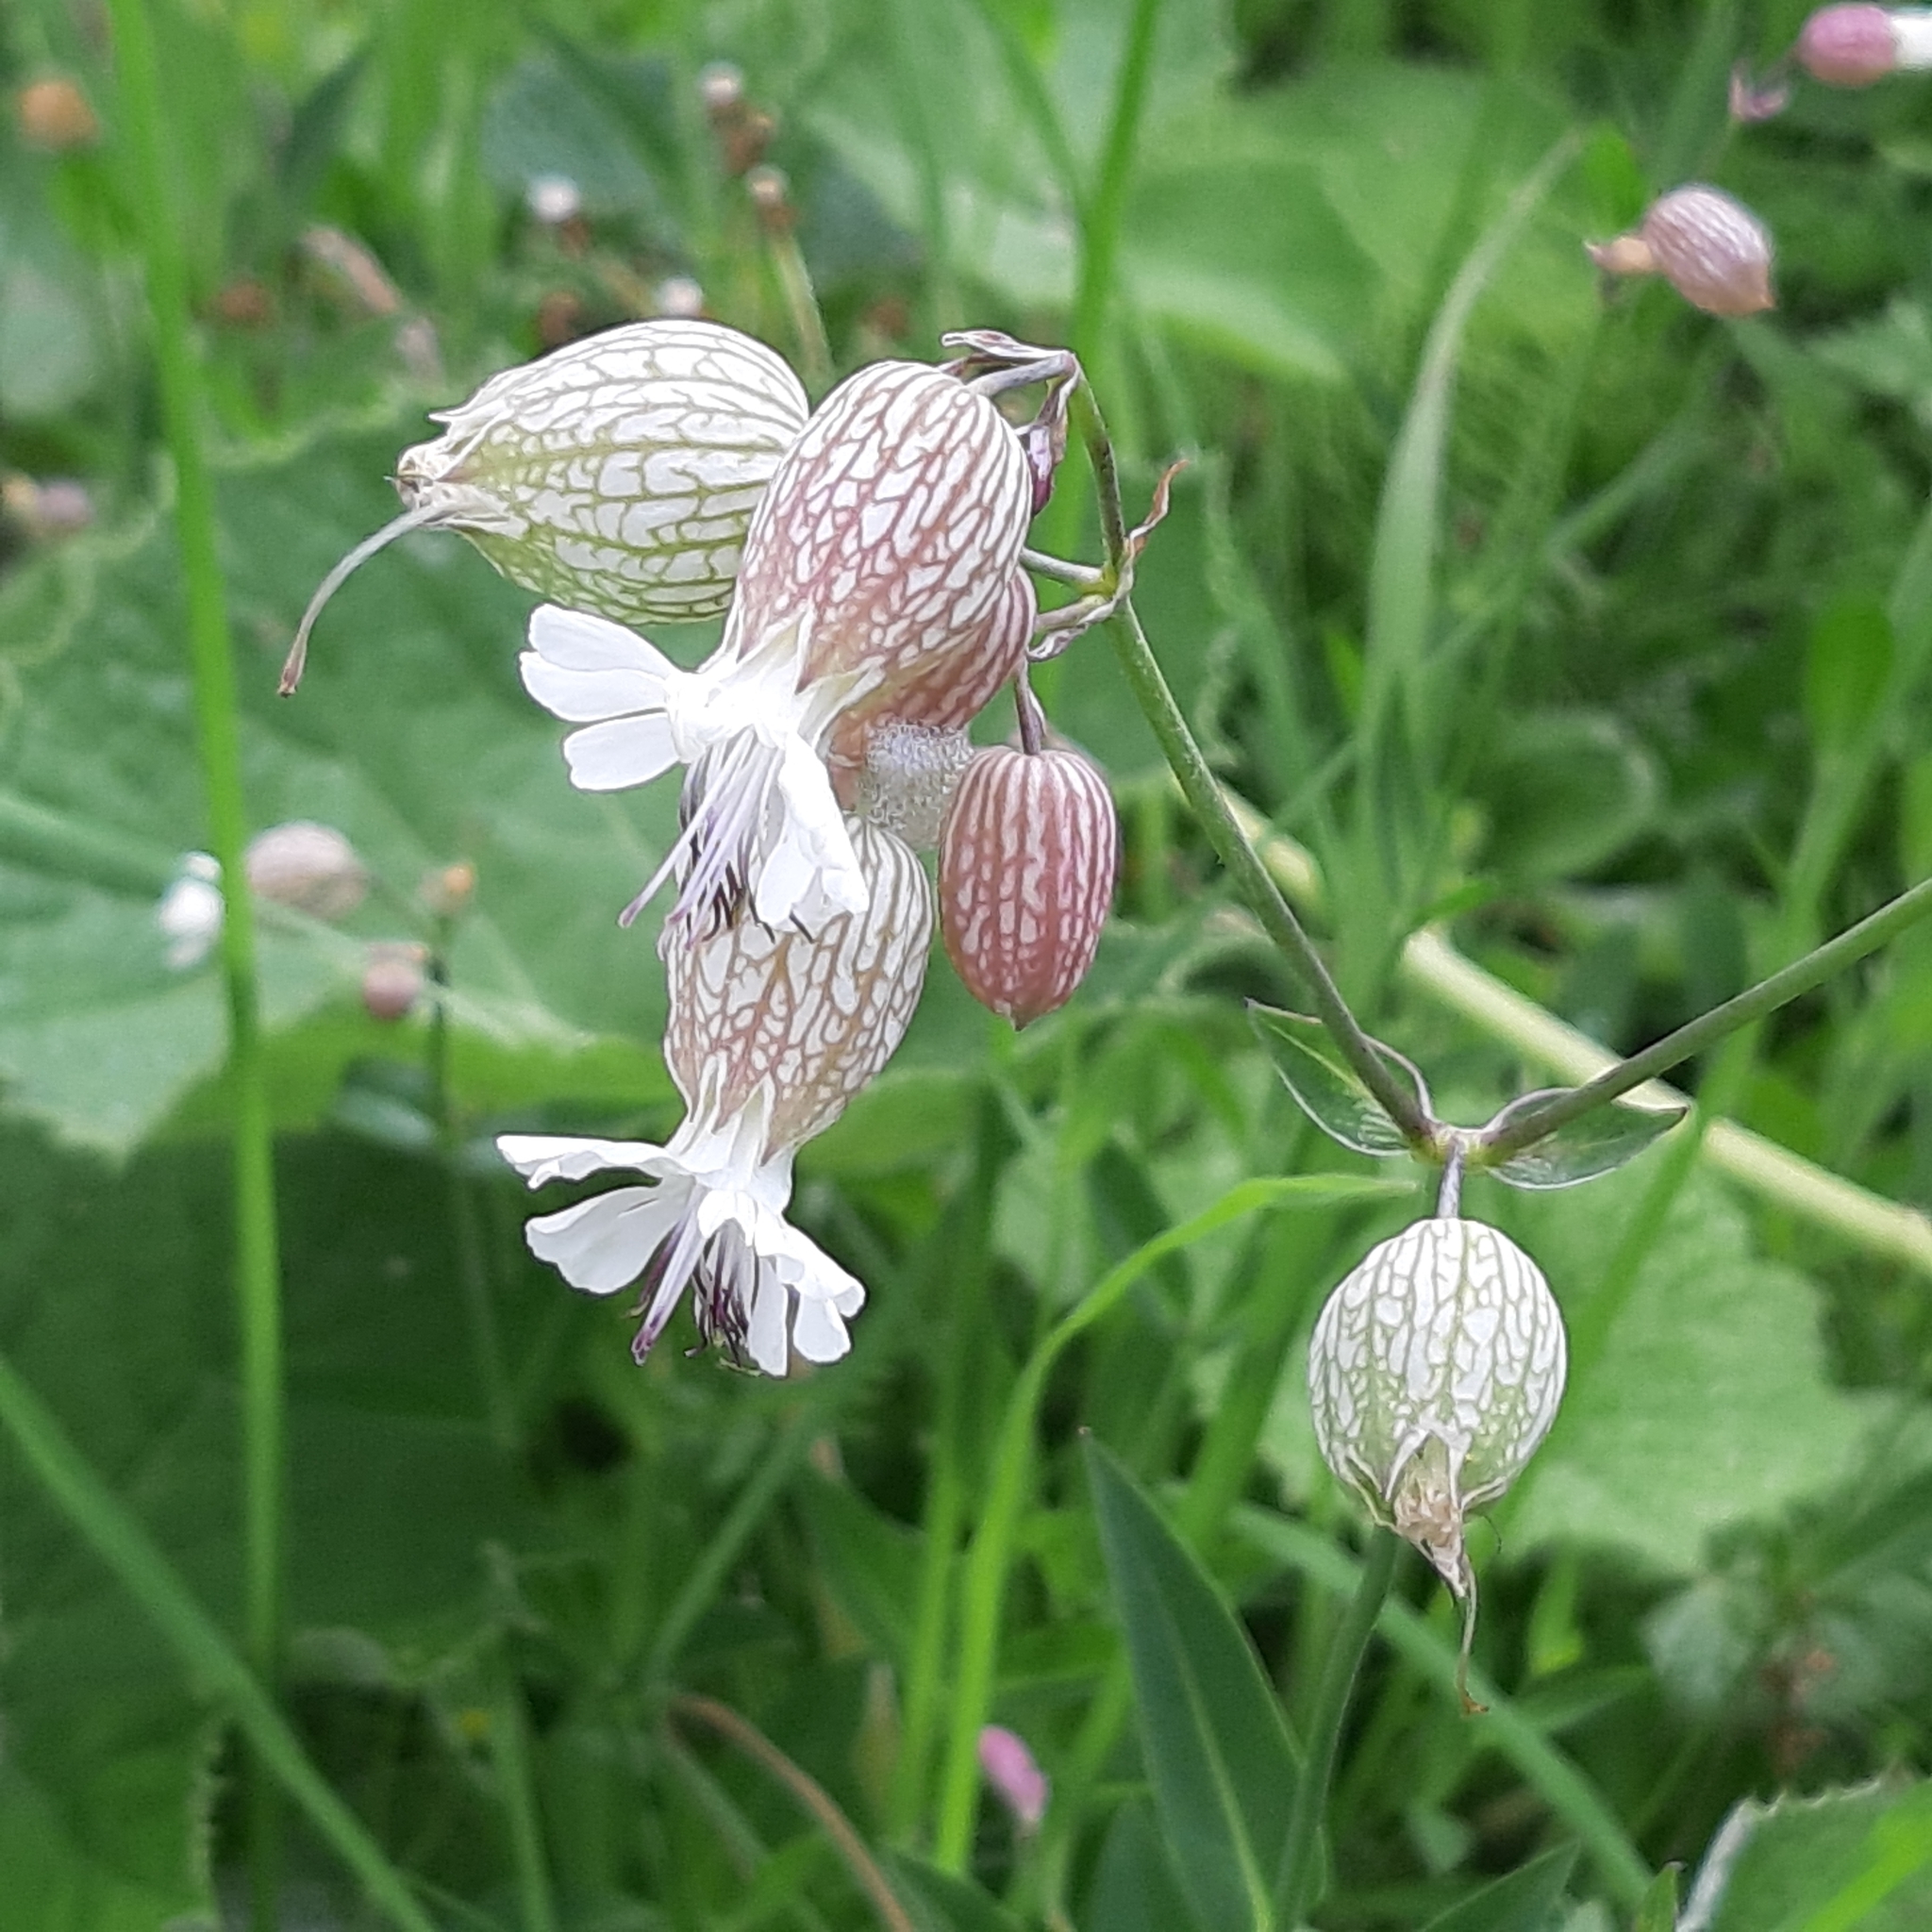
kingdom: Plantae
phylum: Tracheophyta
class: Magnoliopsida
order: Caryophyllales
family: Caryophyllaceae
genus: Silene
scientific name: Silene vulgaris
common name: Bladder campion
